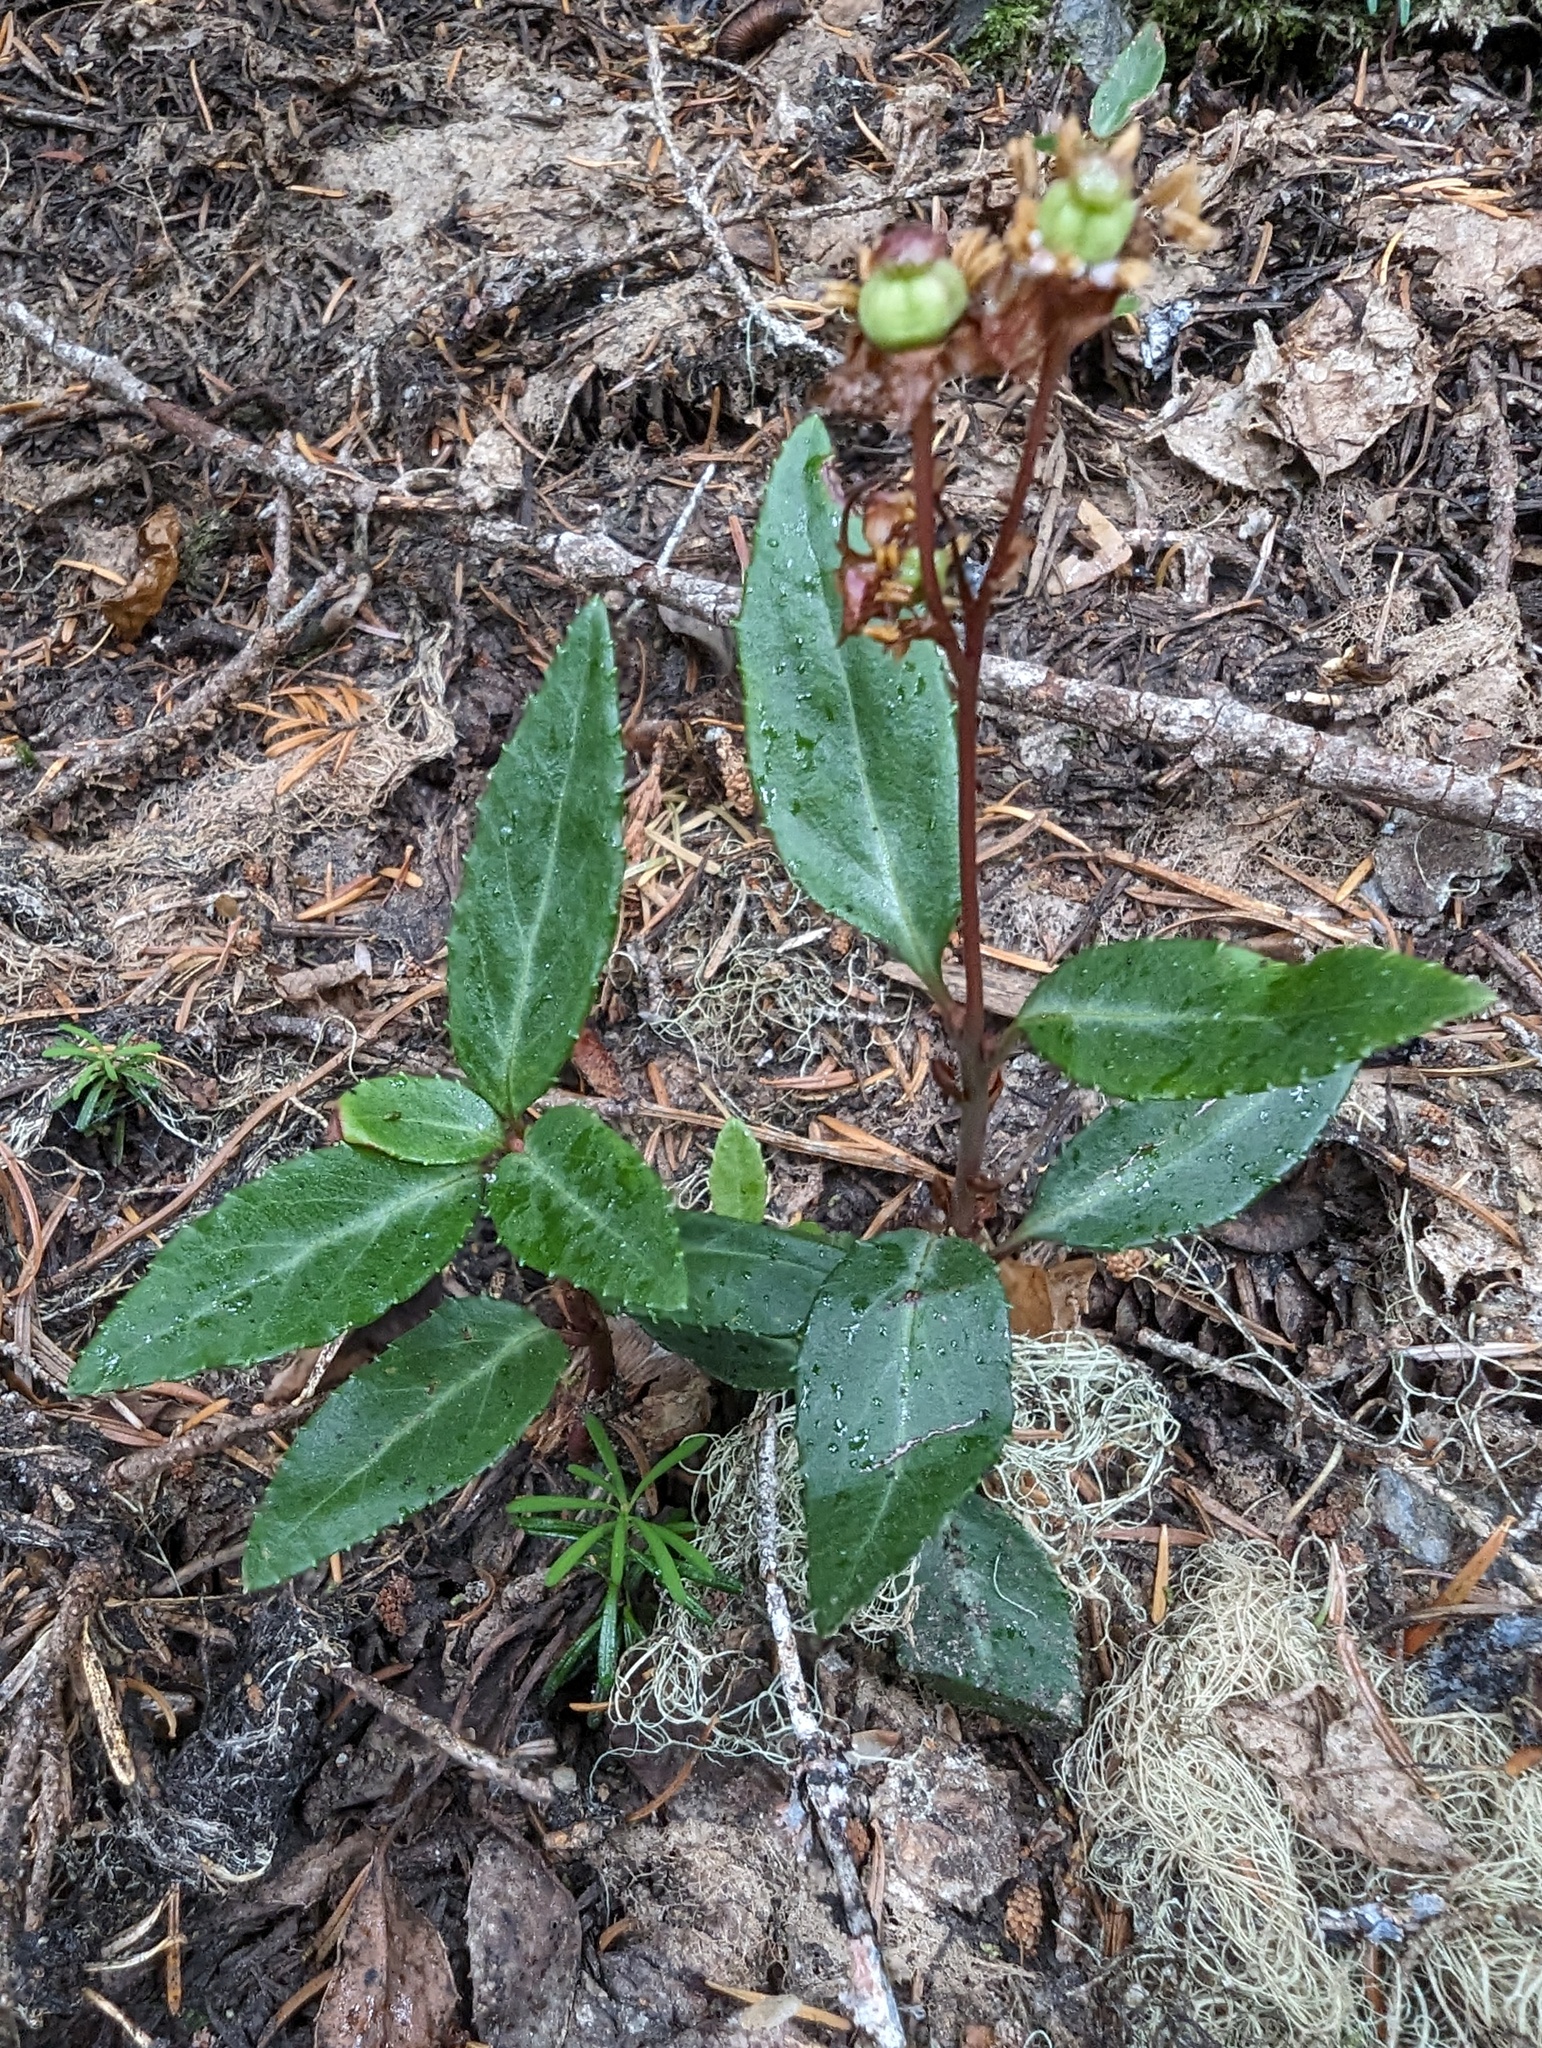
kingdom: Plantae
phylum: Tracheophyta
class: Magnoliopsida
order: Ericales
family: Ericaceae
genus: Chimaphila
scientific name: Chimaphila menziesii
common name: Menzies' pipsissewa
